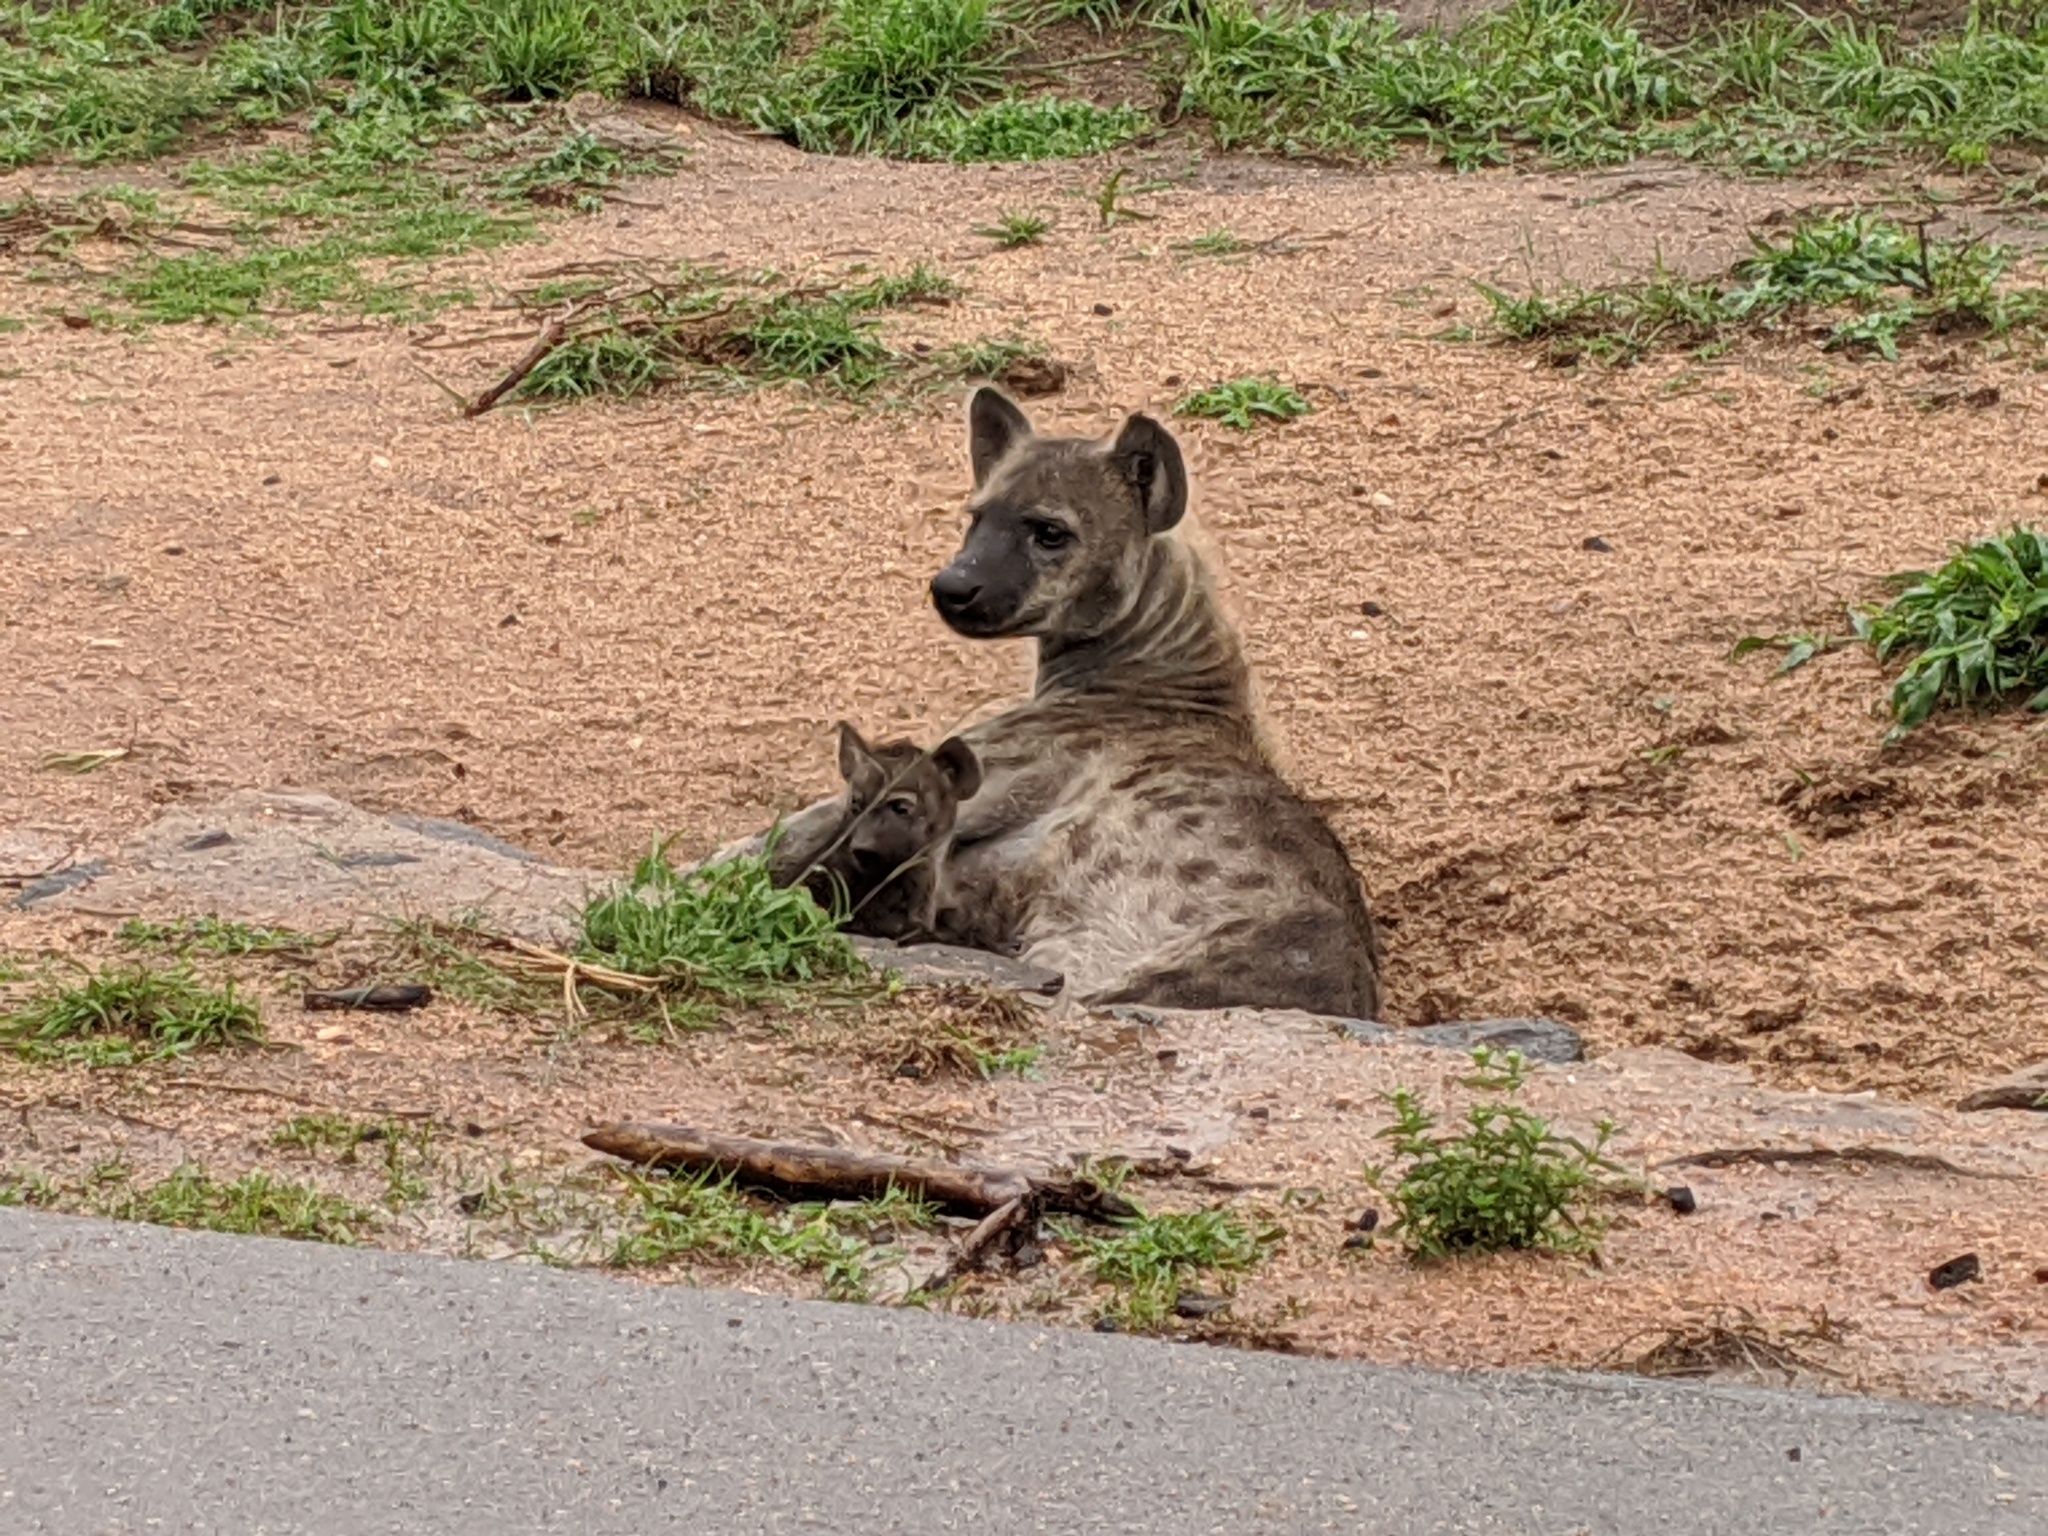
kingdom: Animalia
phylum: Chordata
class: Mammalia
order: Carnivora
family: Hyaenidae
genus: Crocuta
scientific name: Crocuta crocuta
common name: Spotted hyaena
